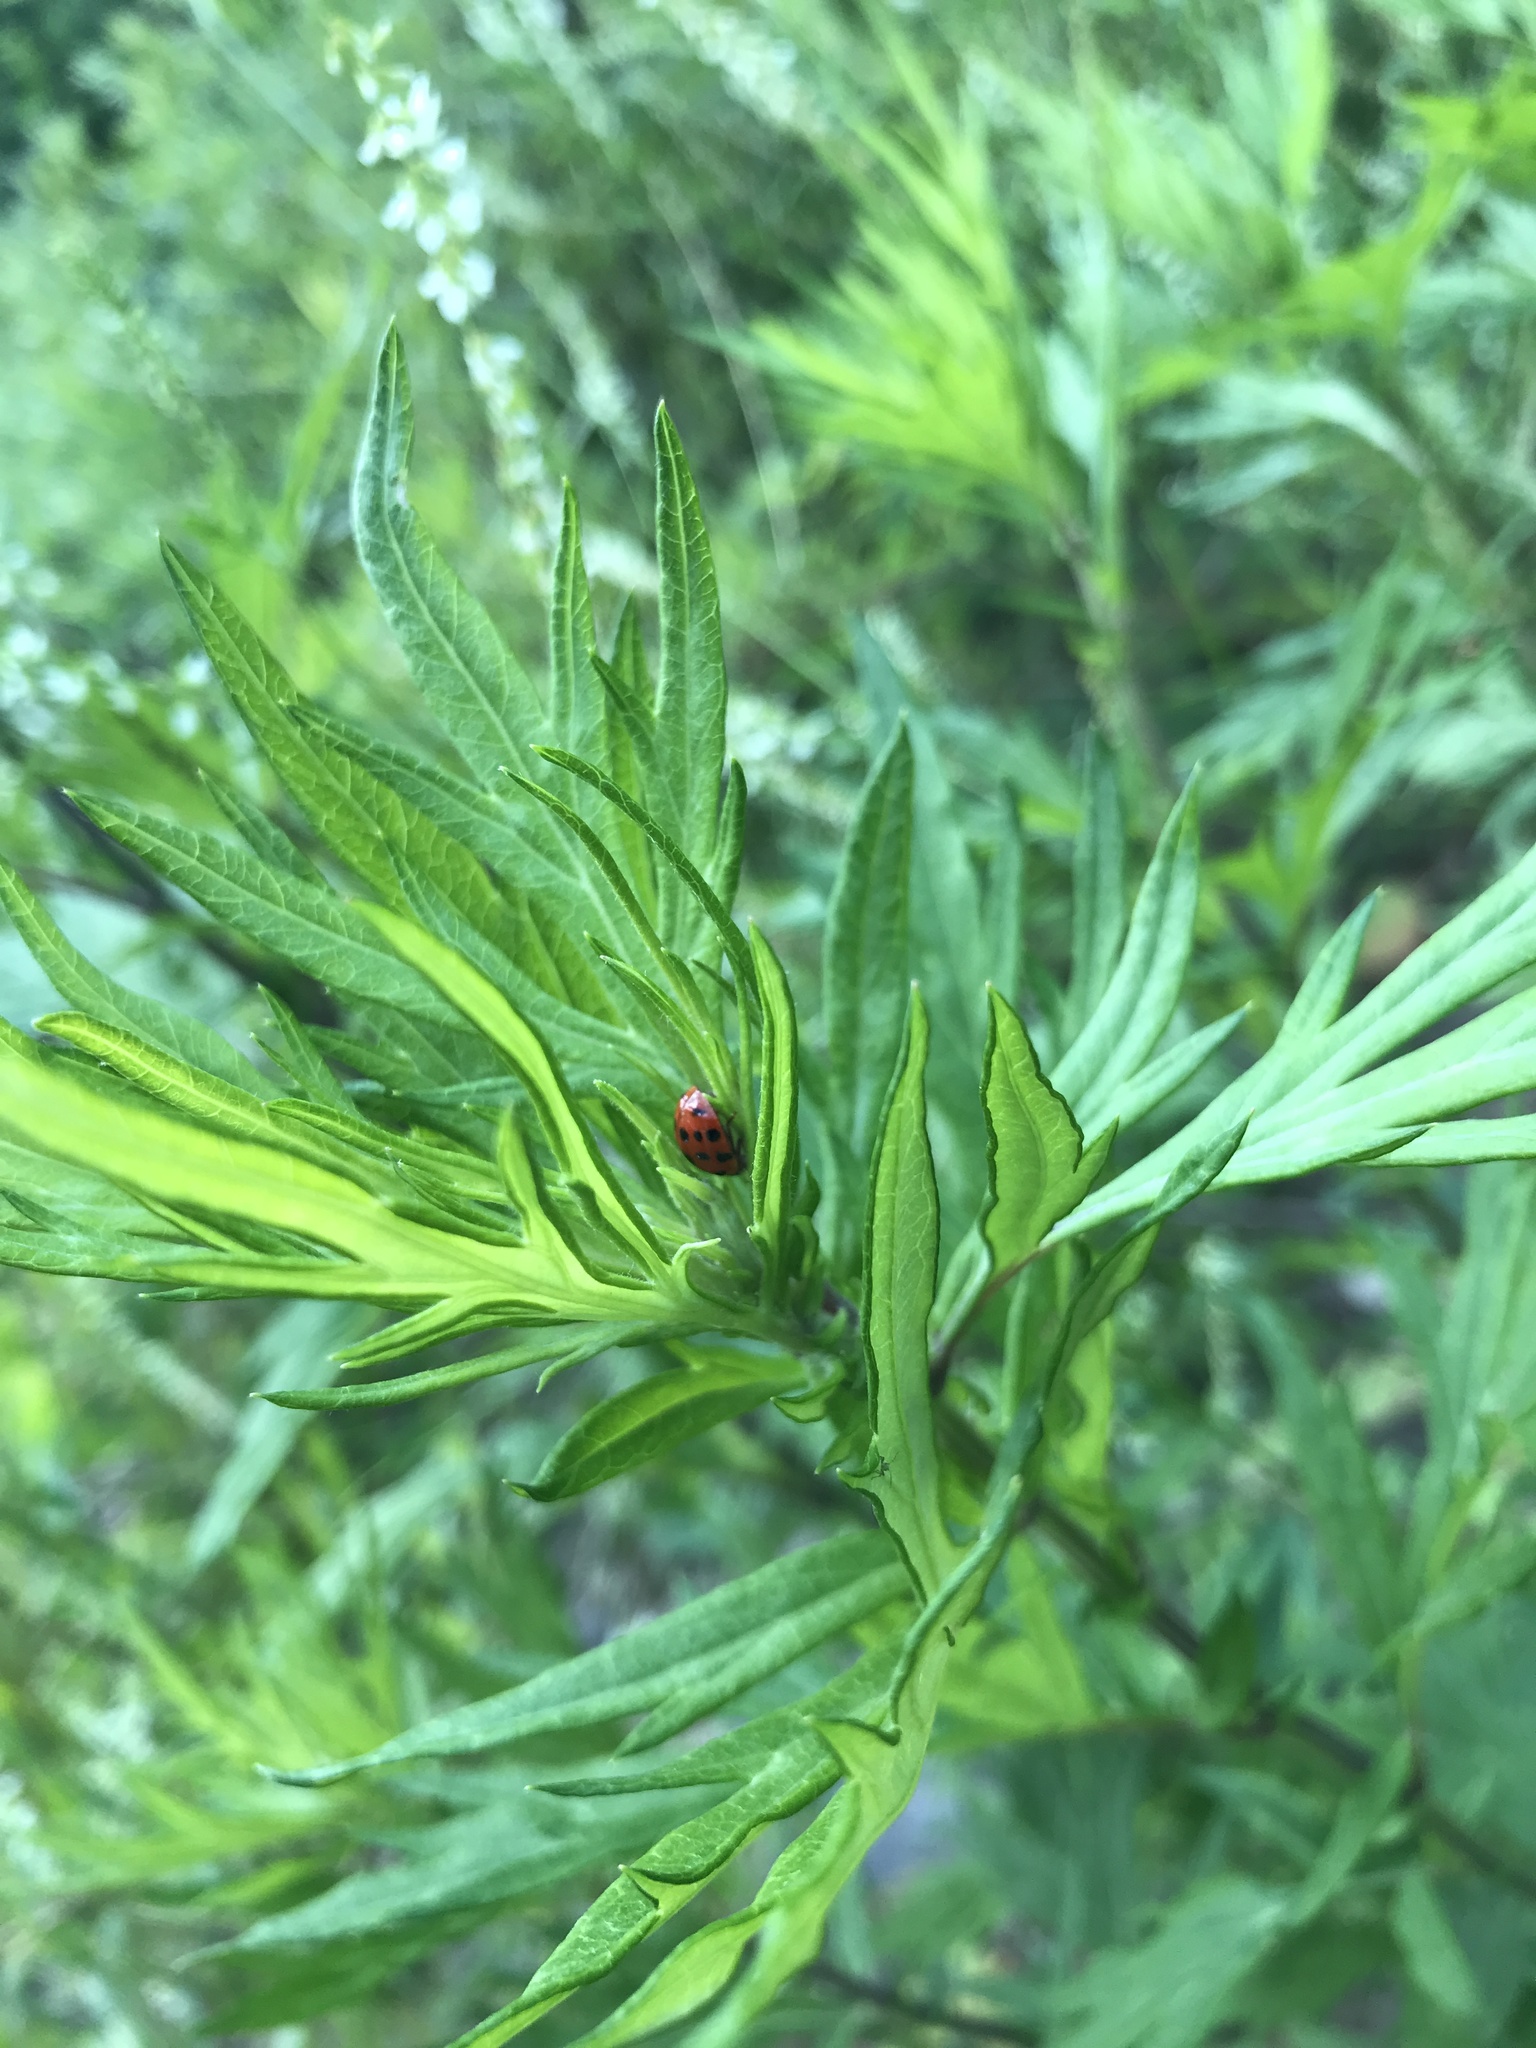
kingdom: Animalia
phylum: Arthropoda
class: Insecta
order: Coleoptera
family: Coccinellidae
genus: Harmonia
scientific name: Harmonia axyridis
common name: Harlequin ladybird
